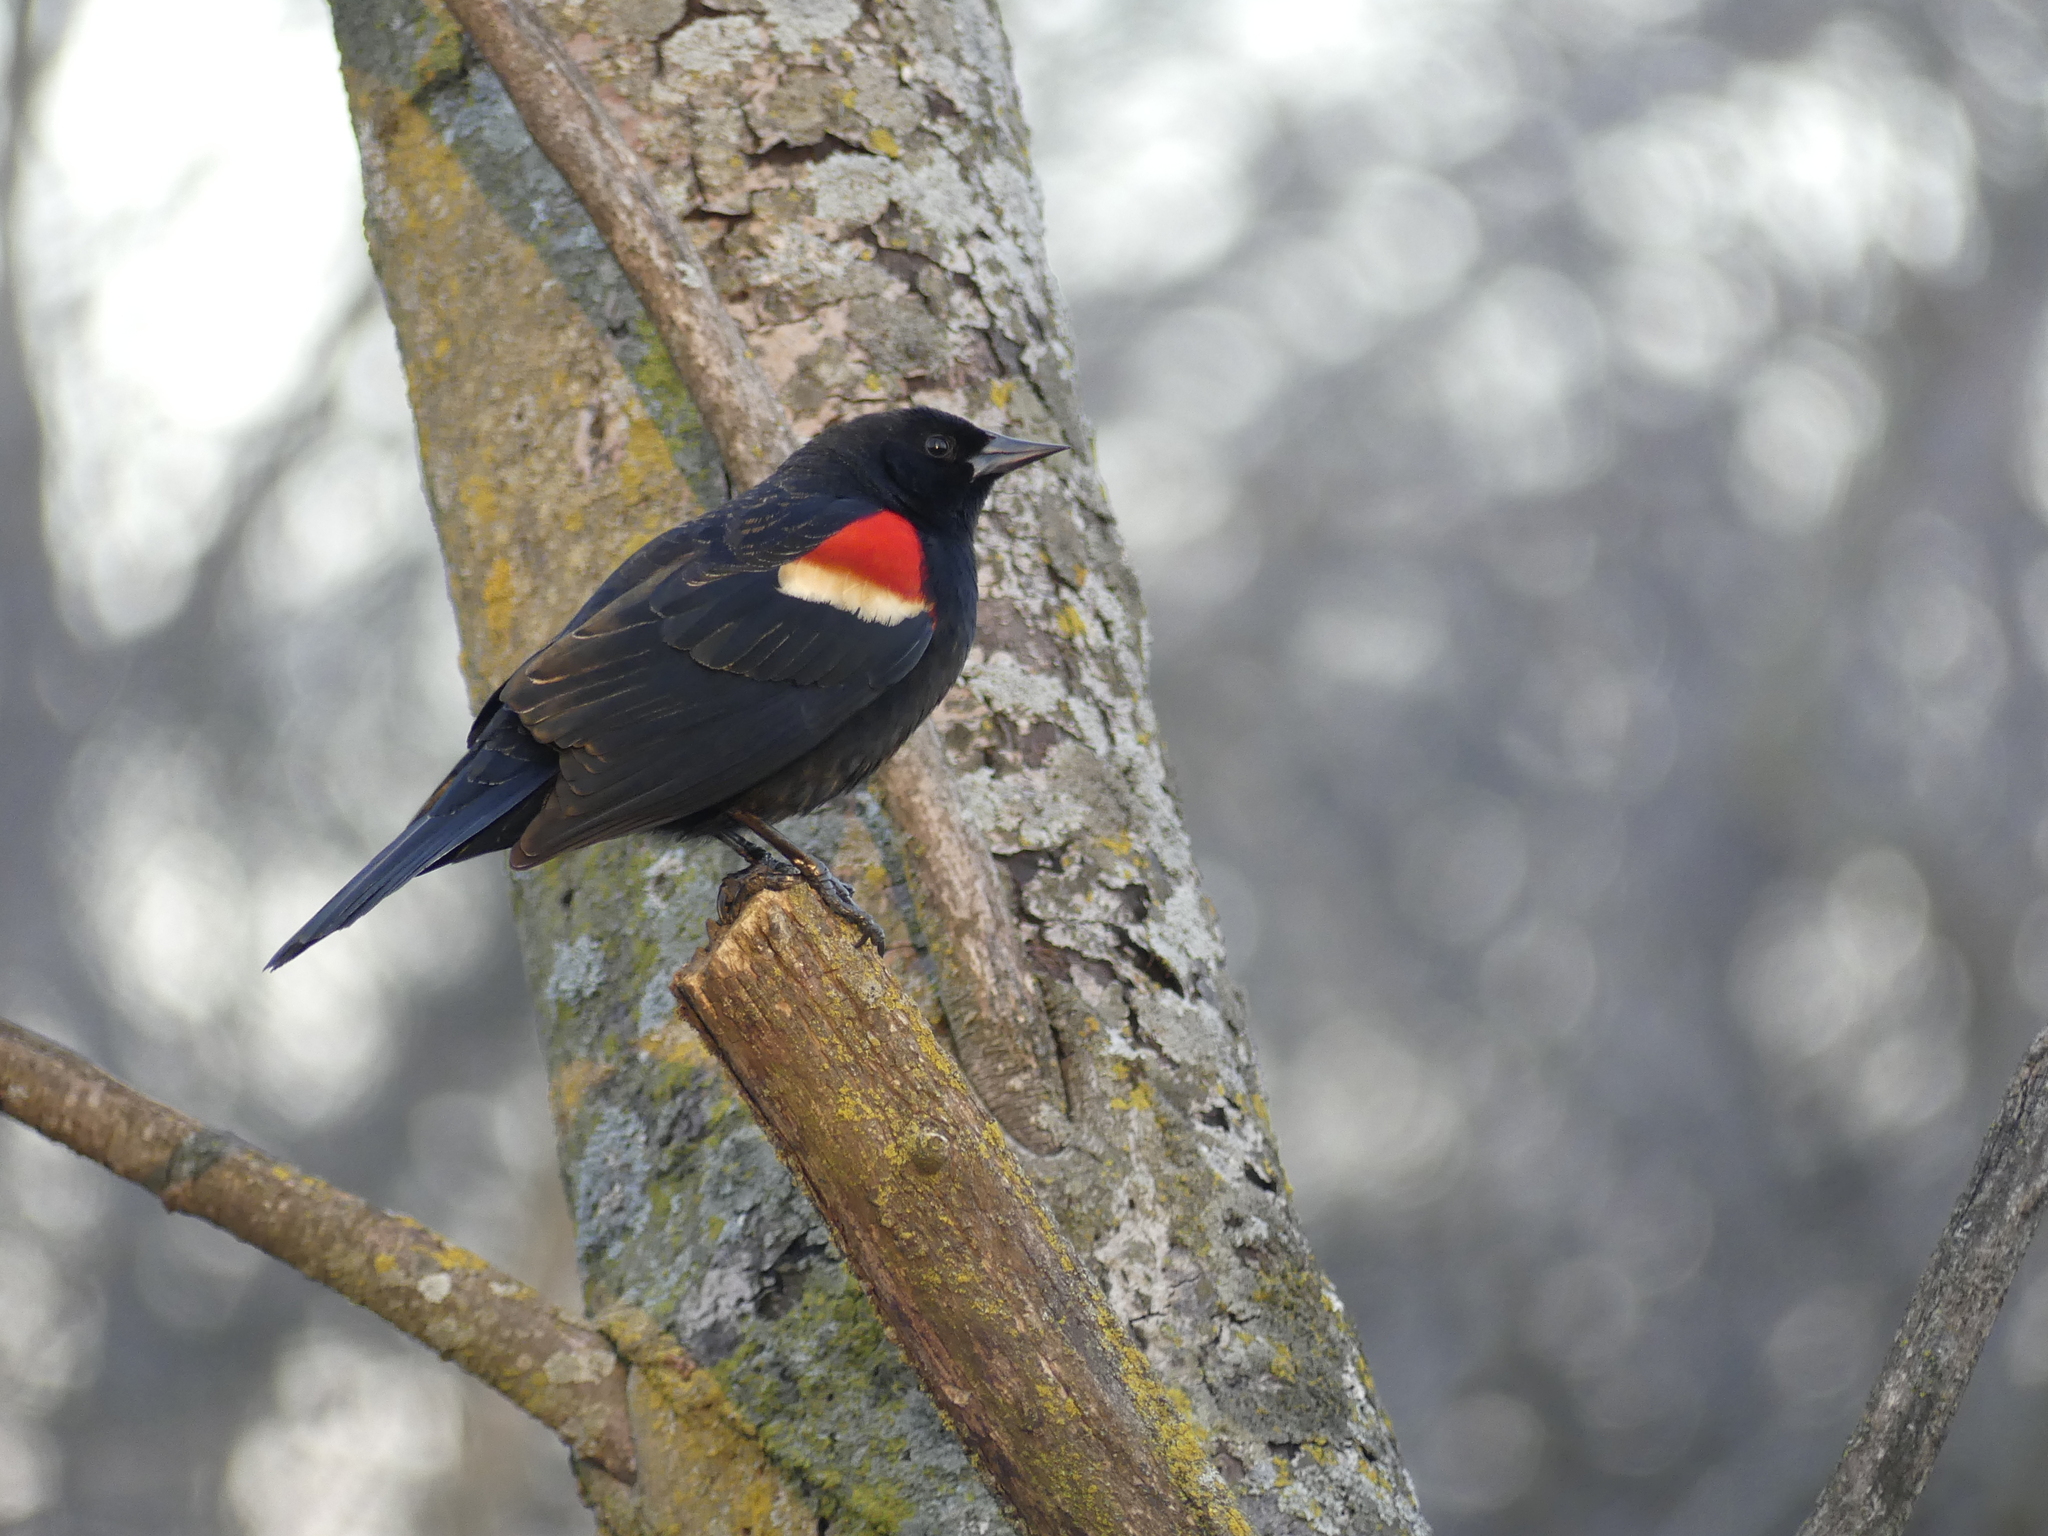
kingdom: Animalia
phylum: Chordata
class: Aves
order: Passeriformes
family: Icteridae
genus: Agelaius
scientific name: Agelaius phoeniceus
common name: Red-winged blackbird
